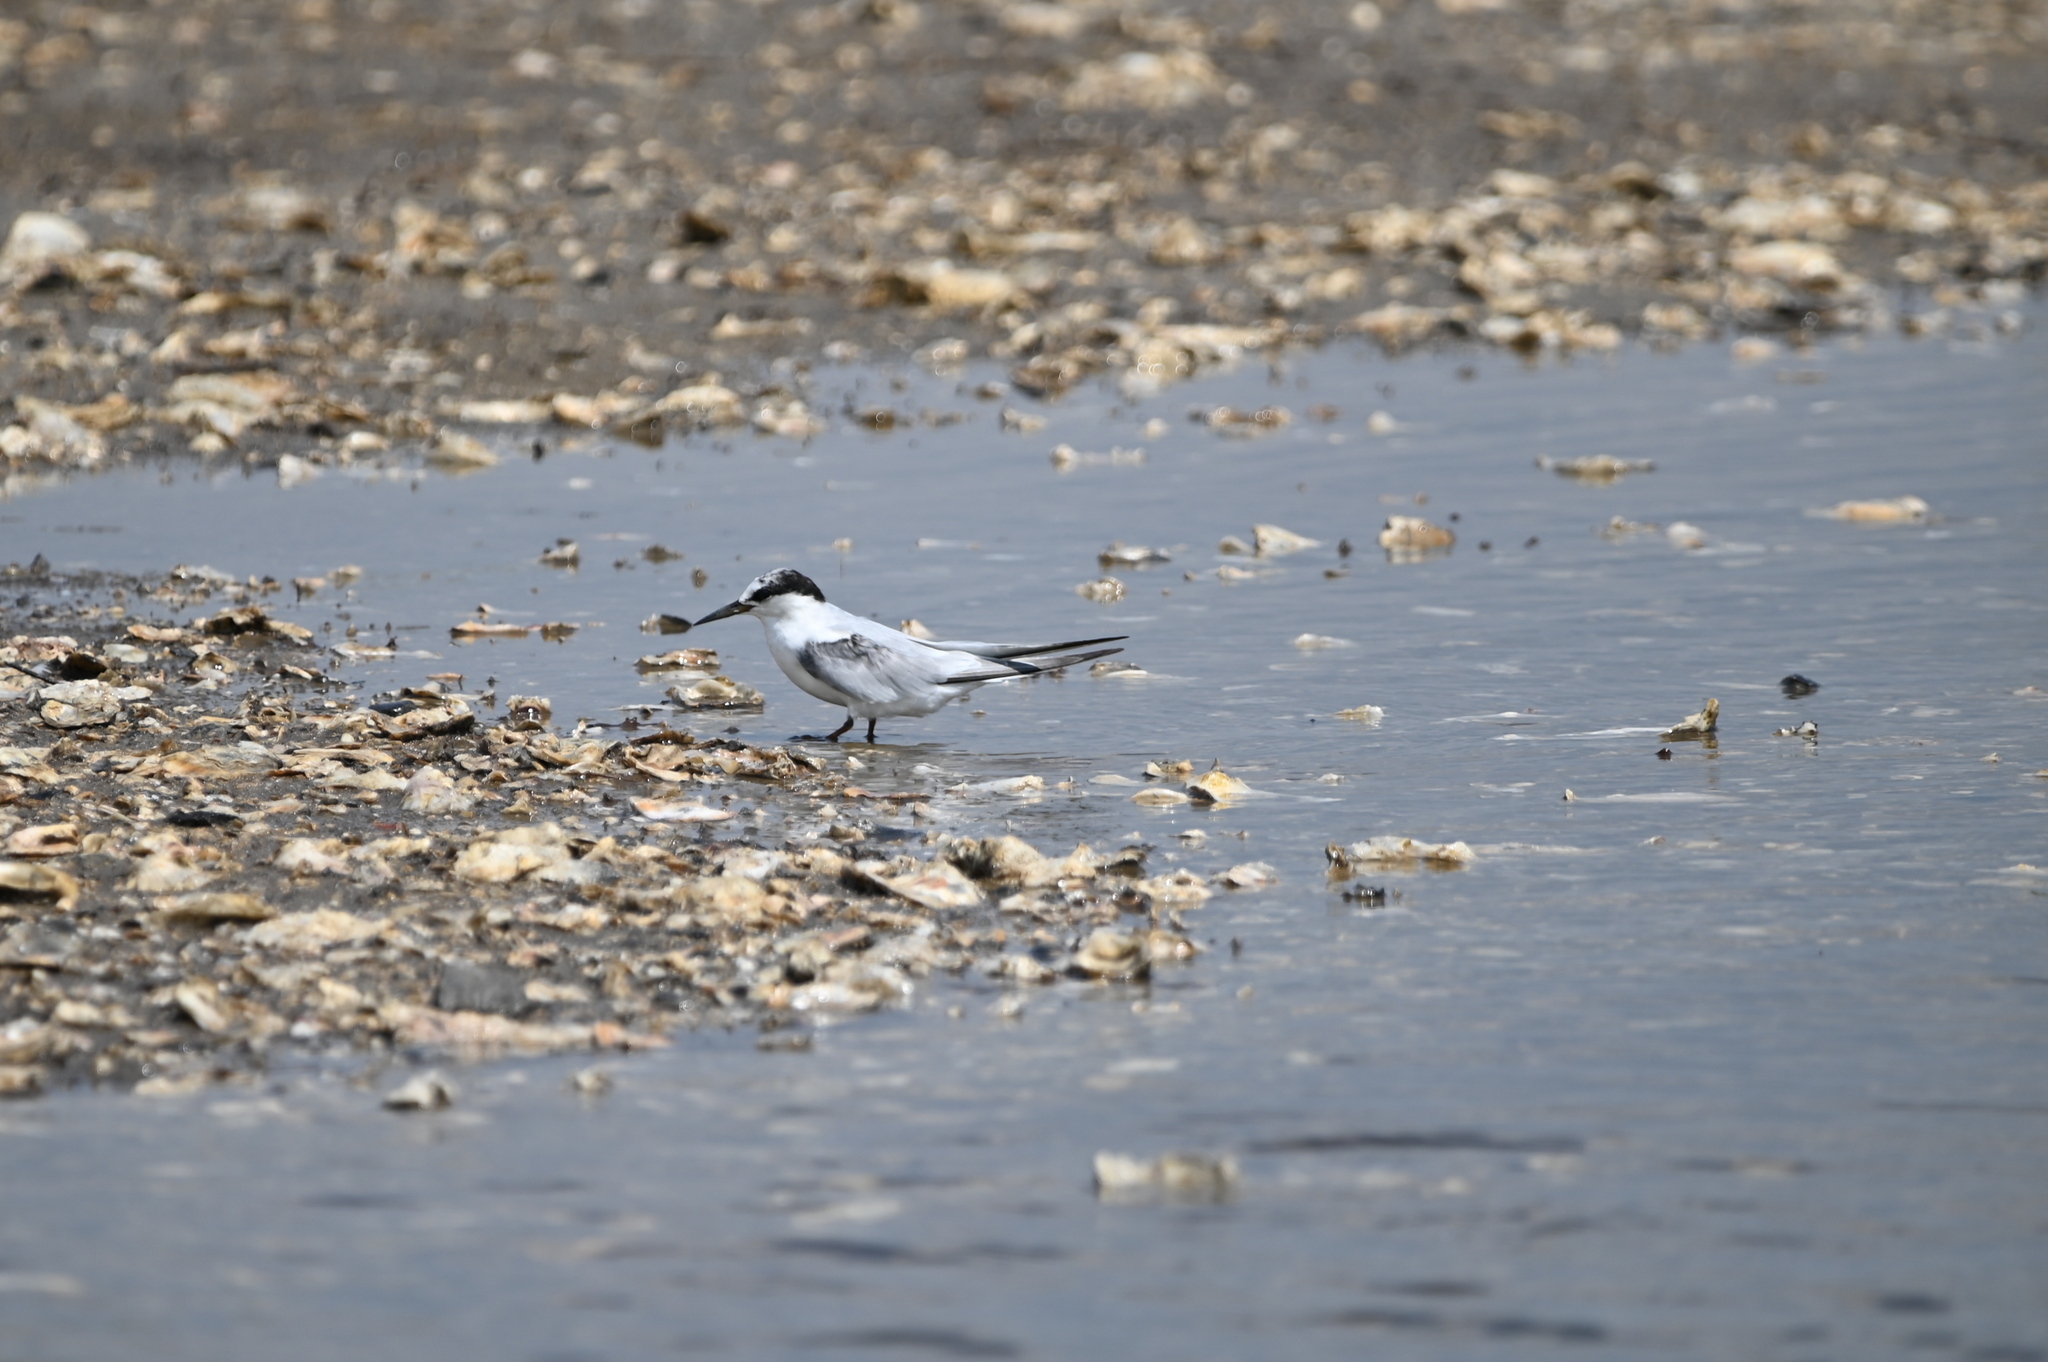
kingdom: Animalia
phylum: Chordata
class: Aves
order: Charadriiformes
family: Laridae
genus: Sternula
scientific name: Sternula antillarum
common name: Least tern
